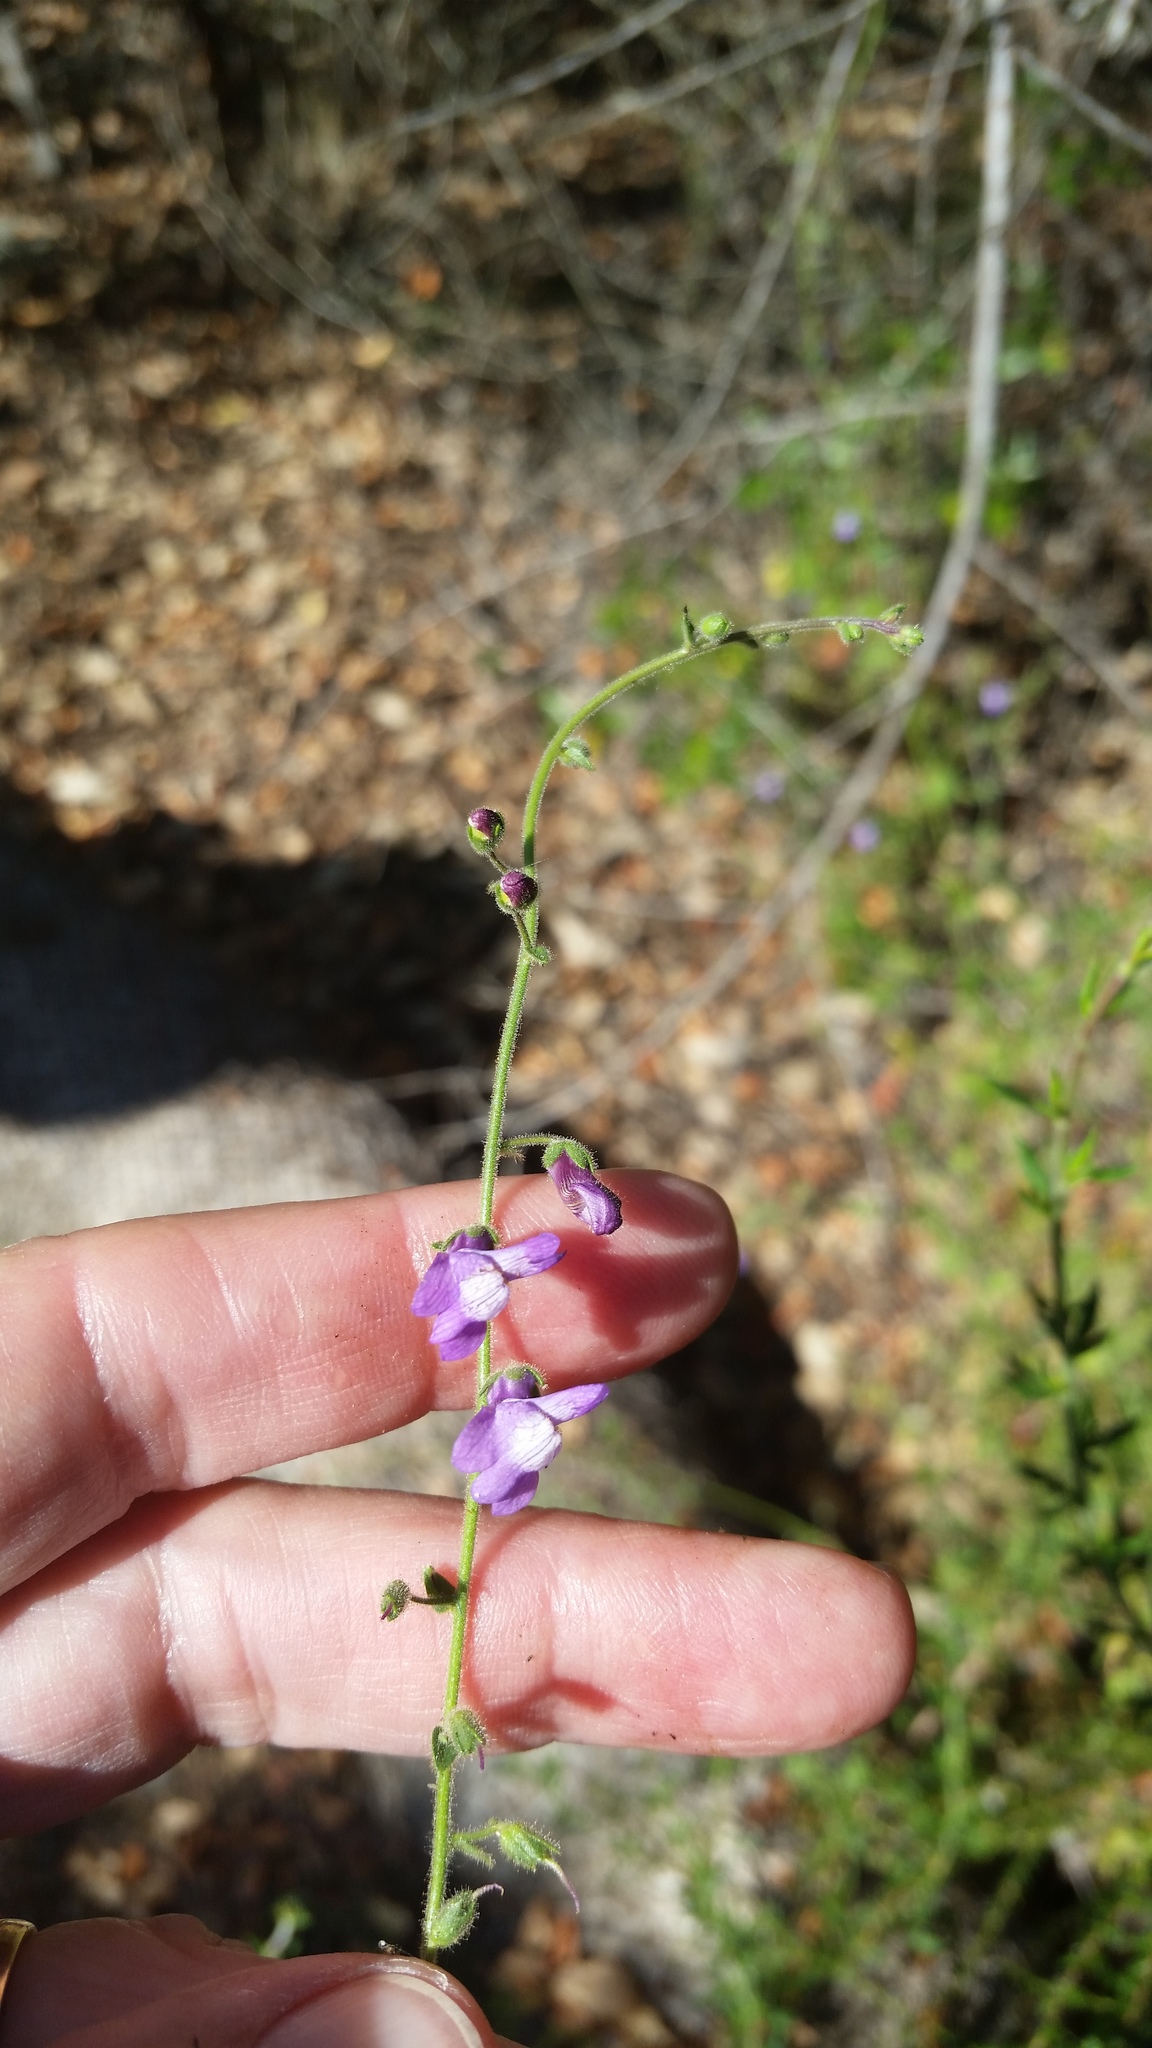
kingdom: Plantae
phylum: Tracheophyta
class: Magnoliopsida
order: Lamiales
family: Plantaginaceae
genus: Sairocarpus
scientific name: Sairocarpus nuttallianus
